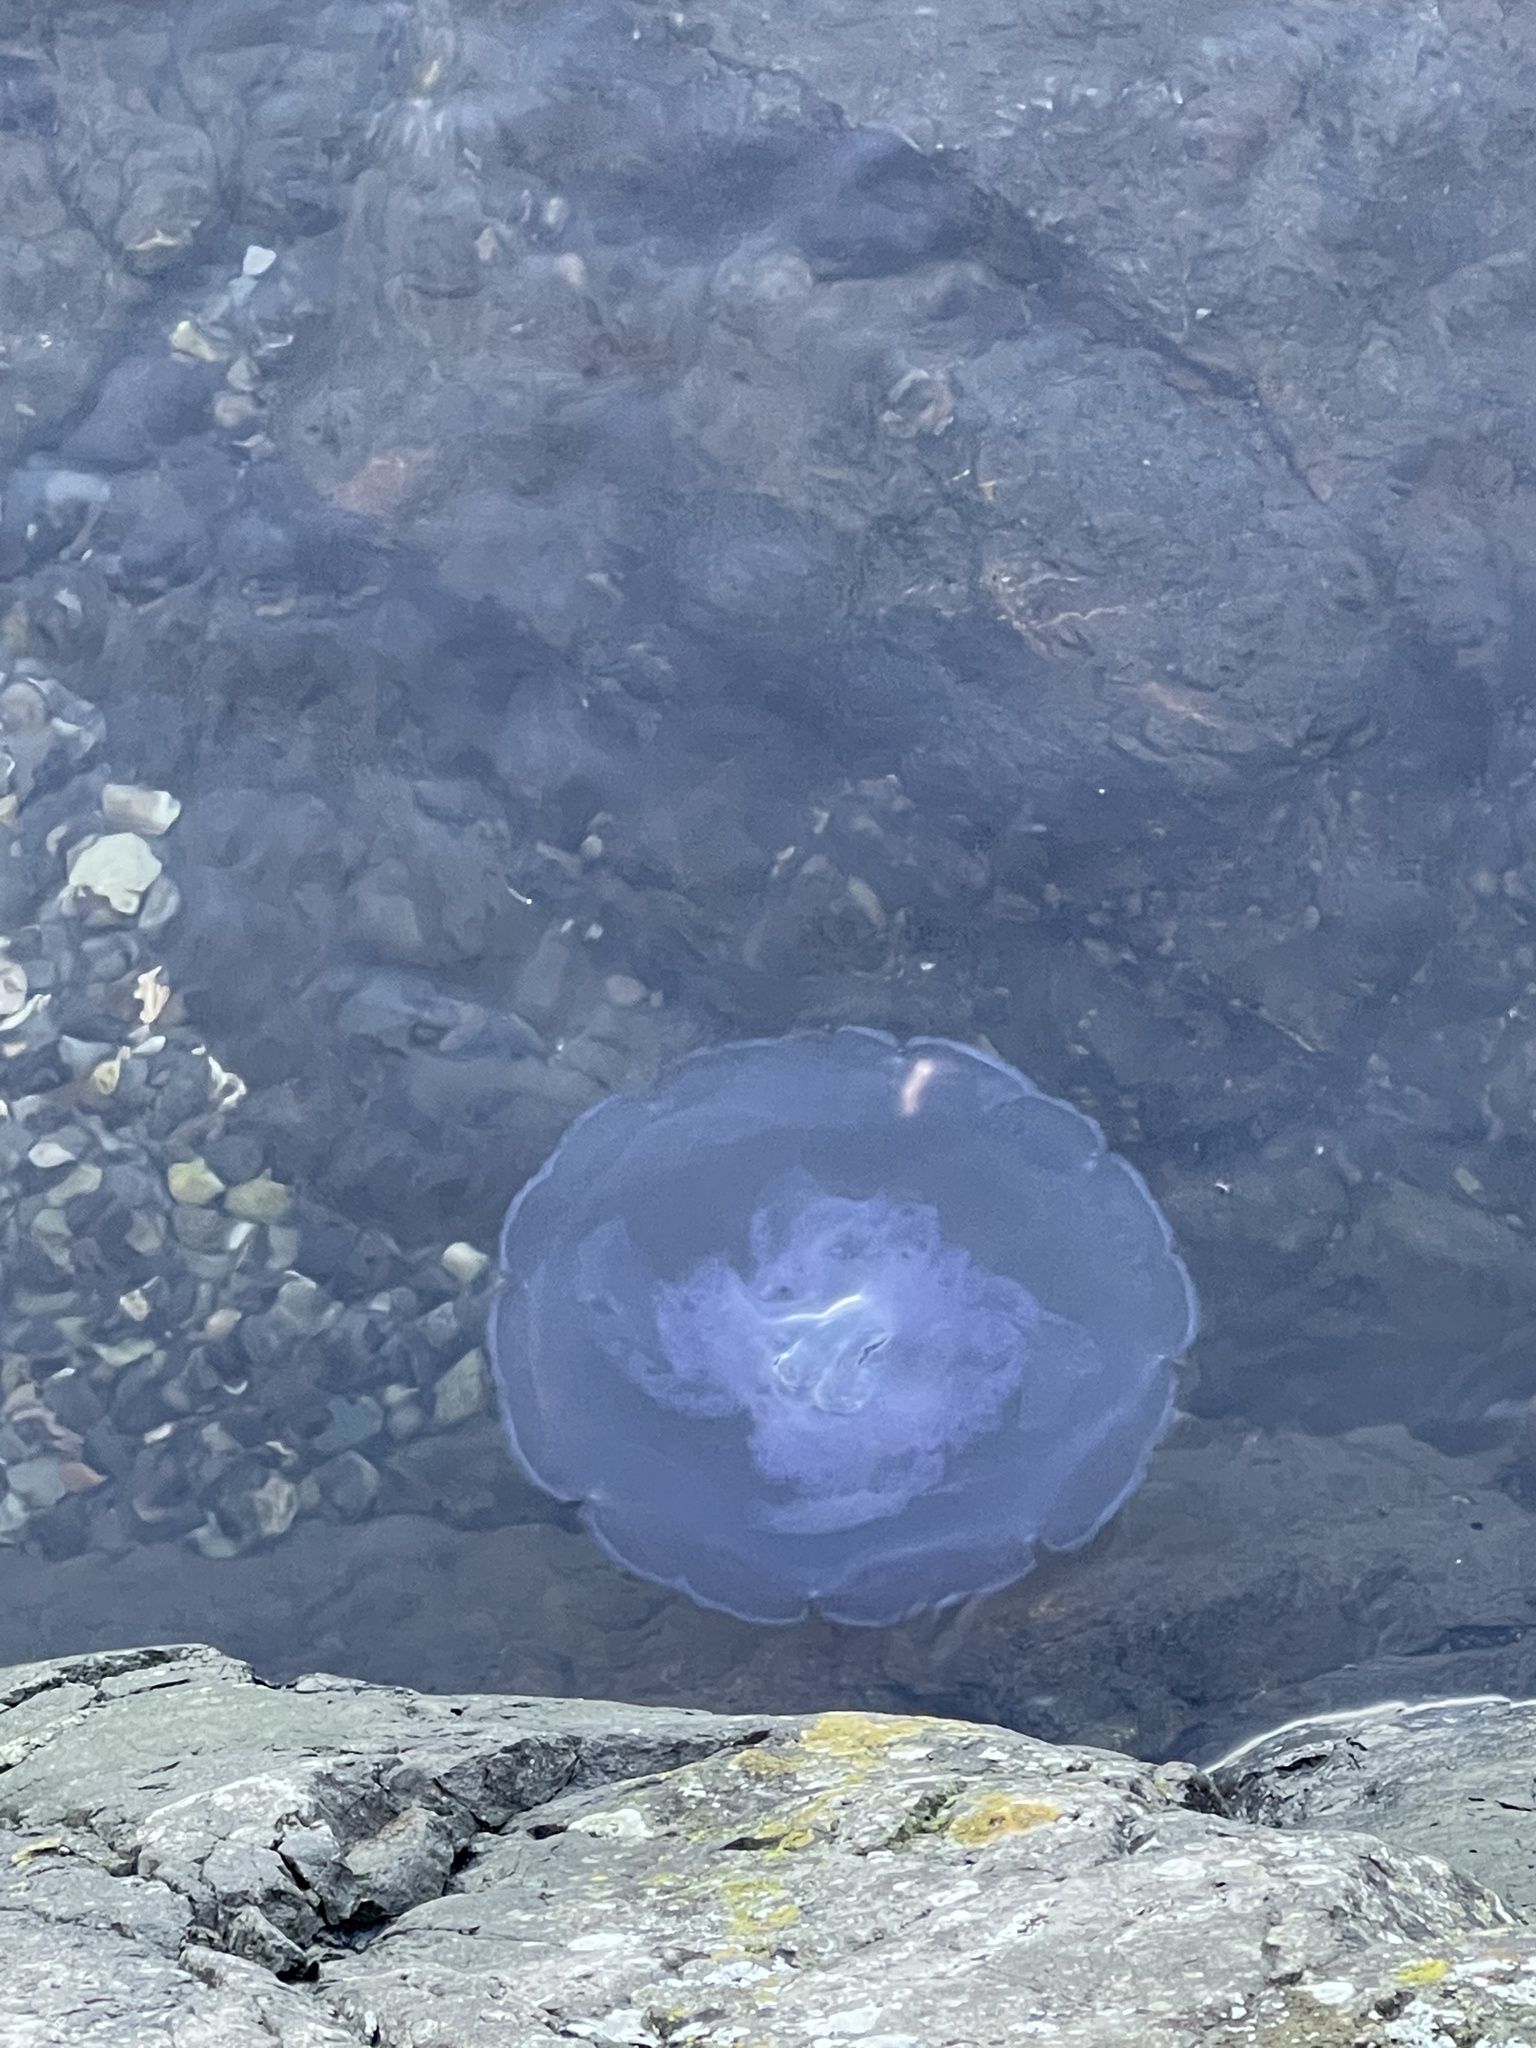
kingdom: Animalia
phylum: Cnidaria
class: Scyphozoa
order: Semaeostomeae
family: Ulmaridae
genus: Aurelia
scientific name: Aurelia labiata
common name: Pacific moon jelly
